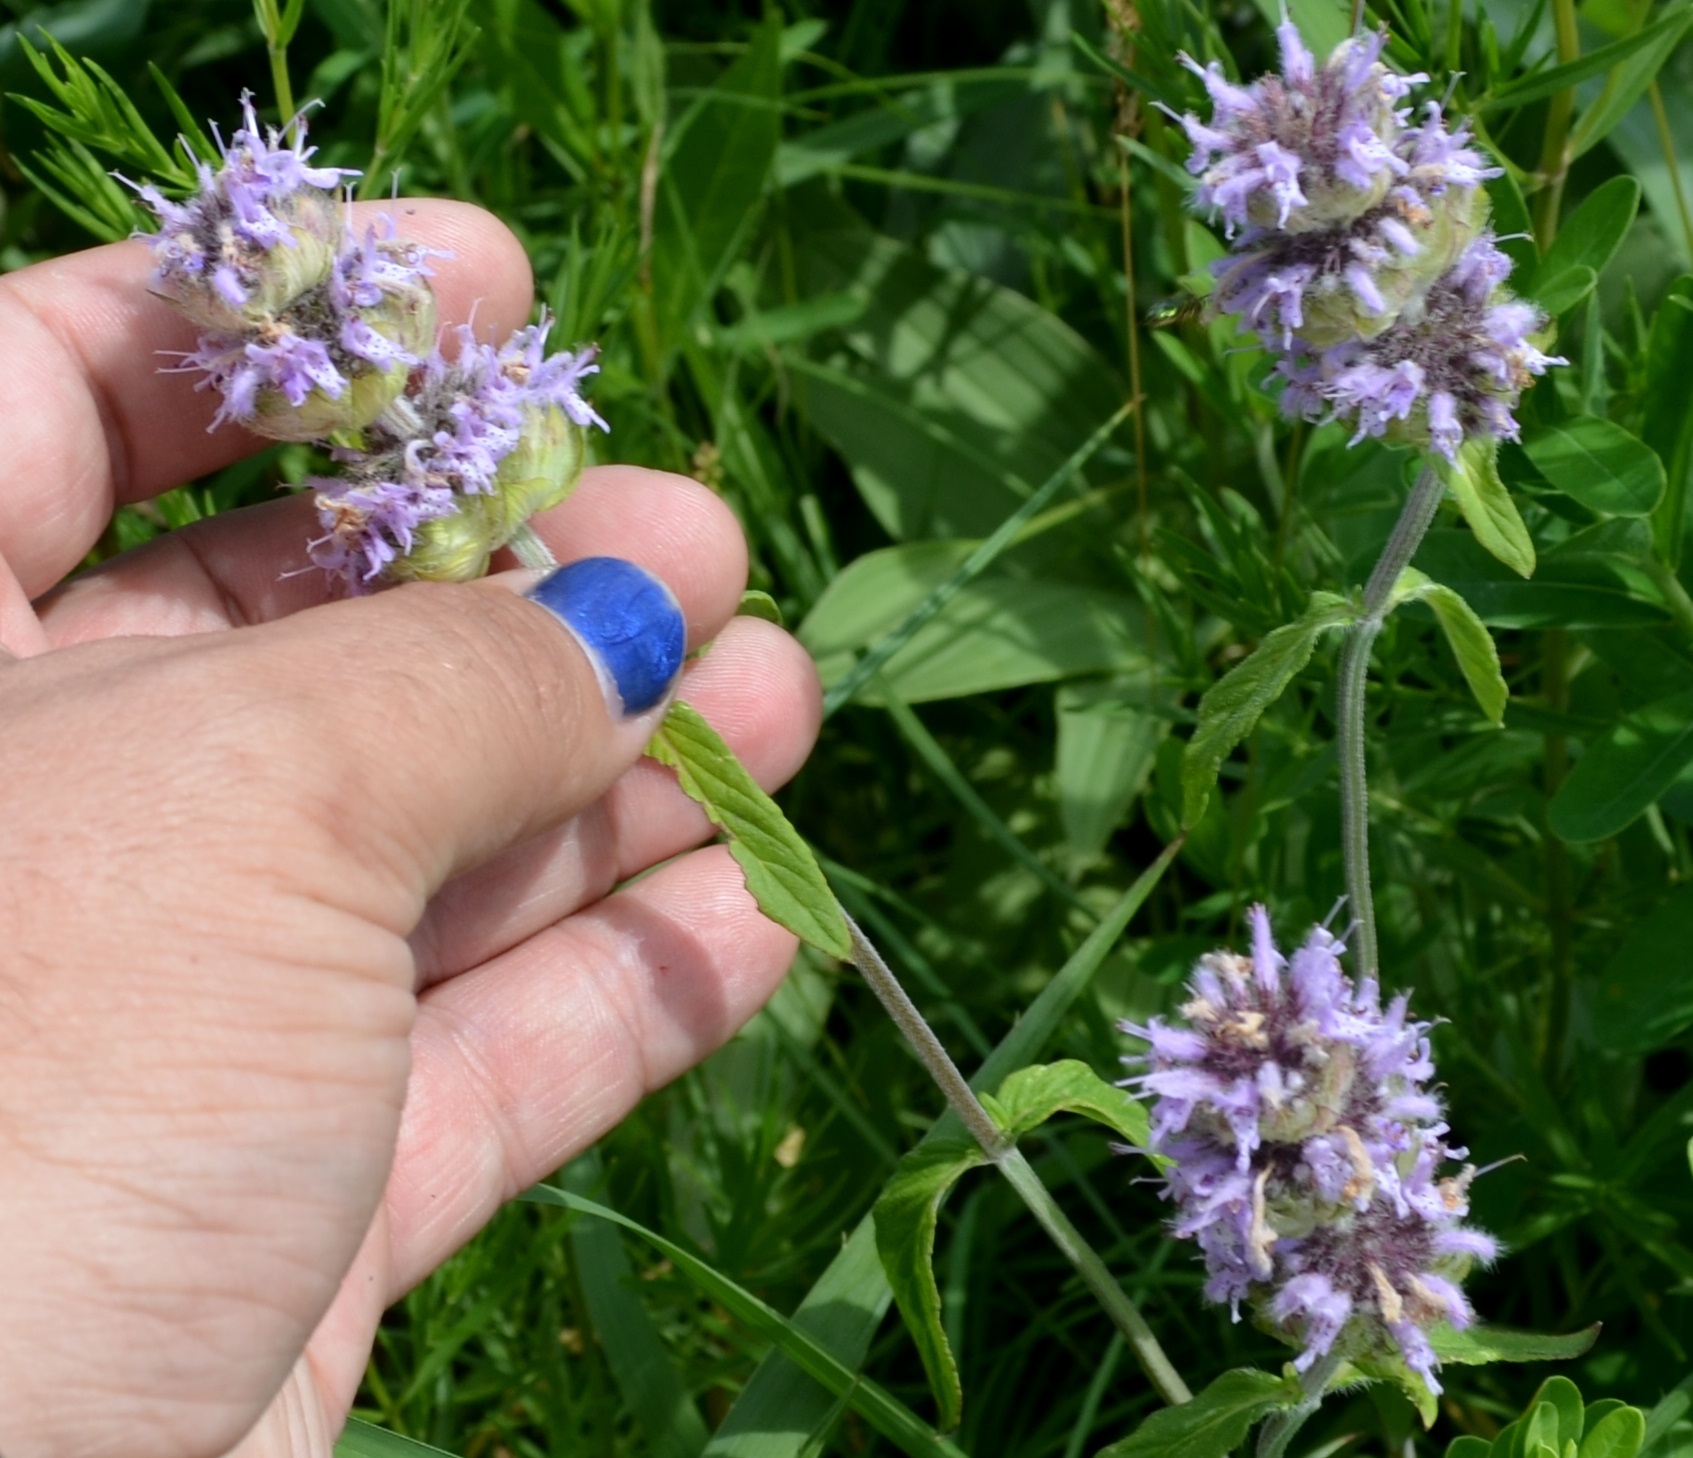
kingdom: Plantae
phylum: Tracheophyta
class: Magnoliopsida
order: Lamiales
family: Lamiaceae
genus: Blephilia
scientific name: Blephilia ciliata
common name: Downy blephilia
